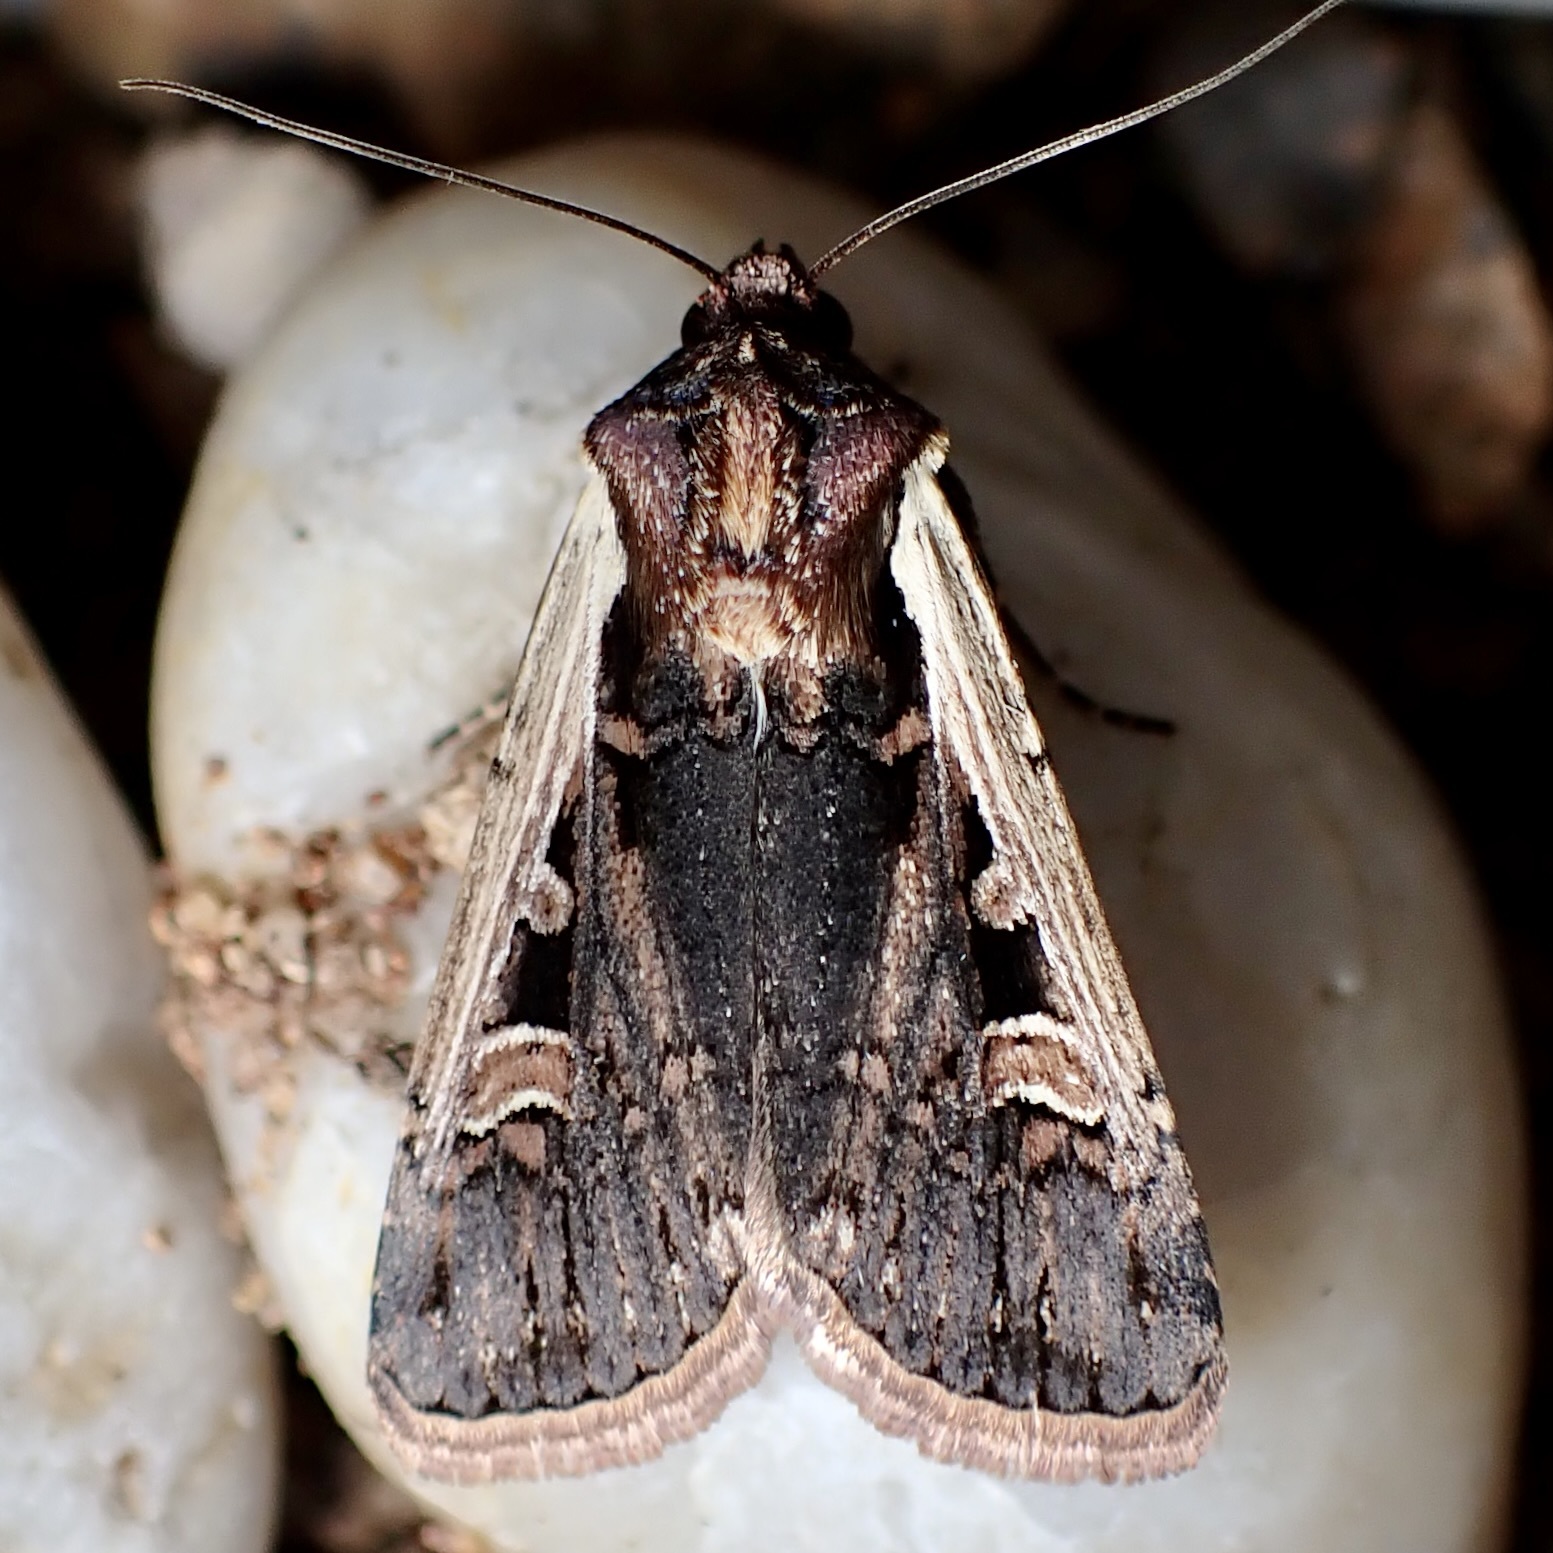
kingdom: Animalia
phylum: Arthropoda
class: Insecta
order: Lepidoptera
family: Noctuidae
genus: Striacosta
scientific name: Striacosta albicosta
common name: Western bean cutworm moth
